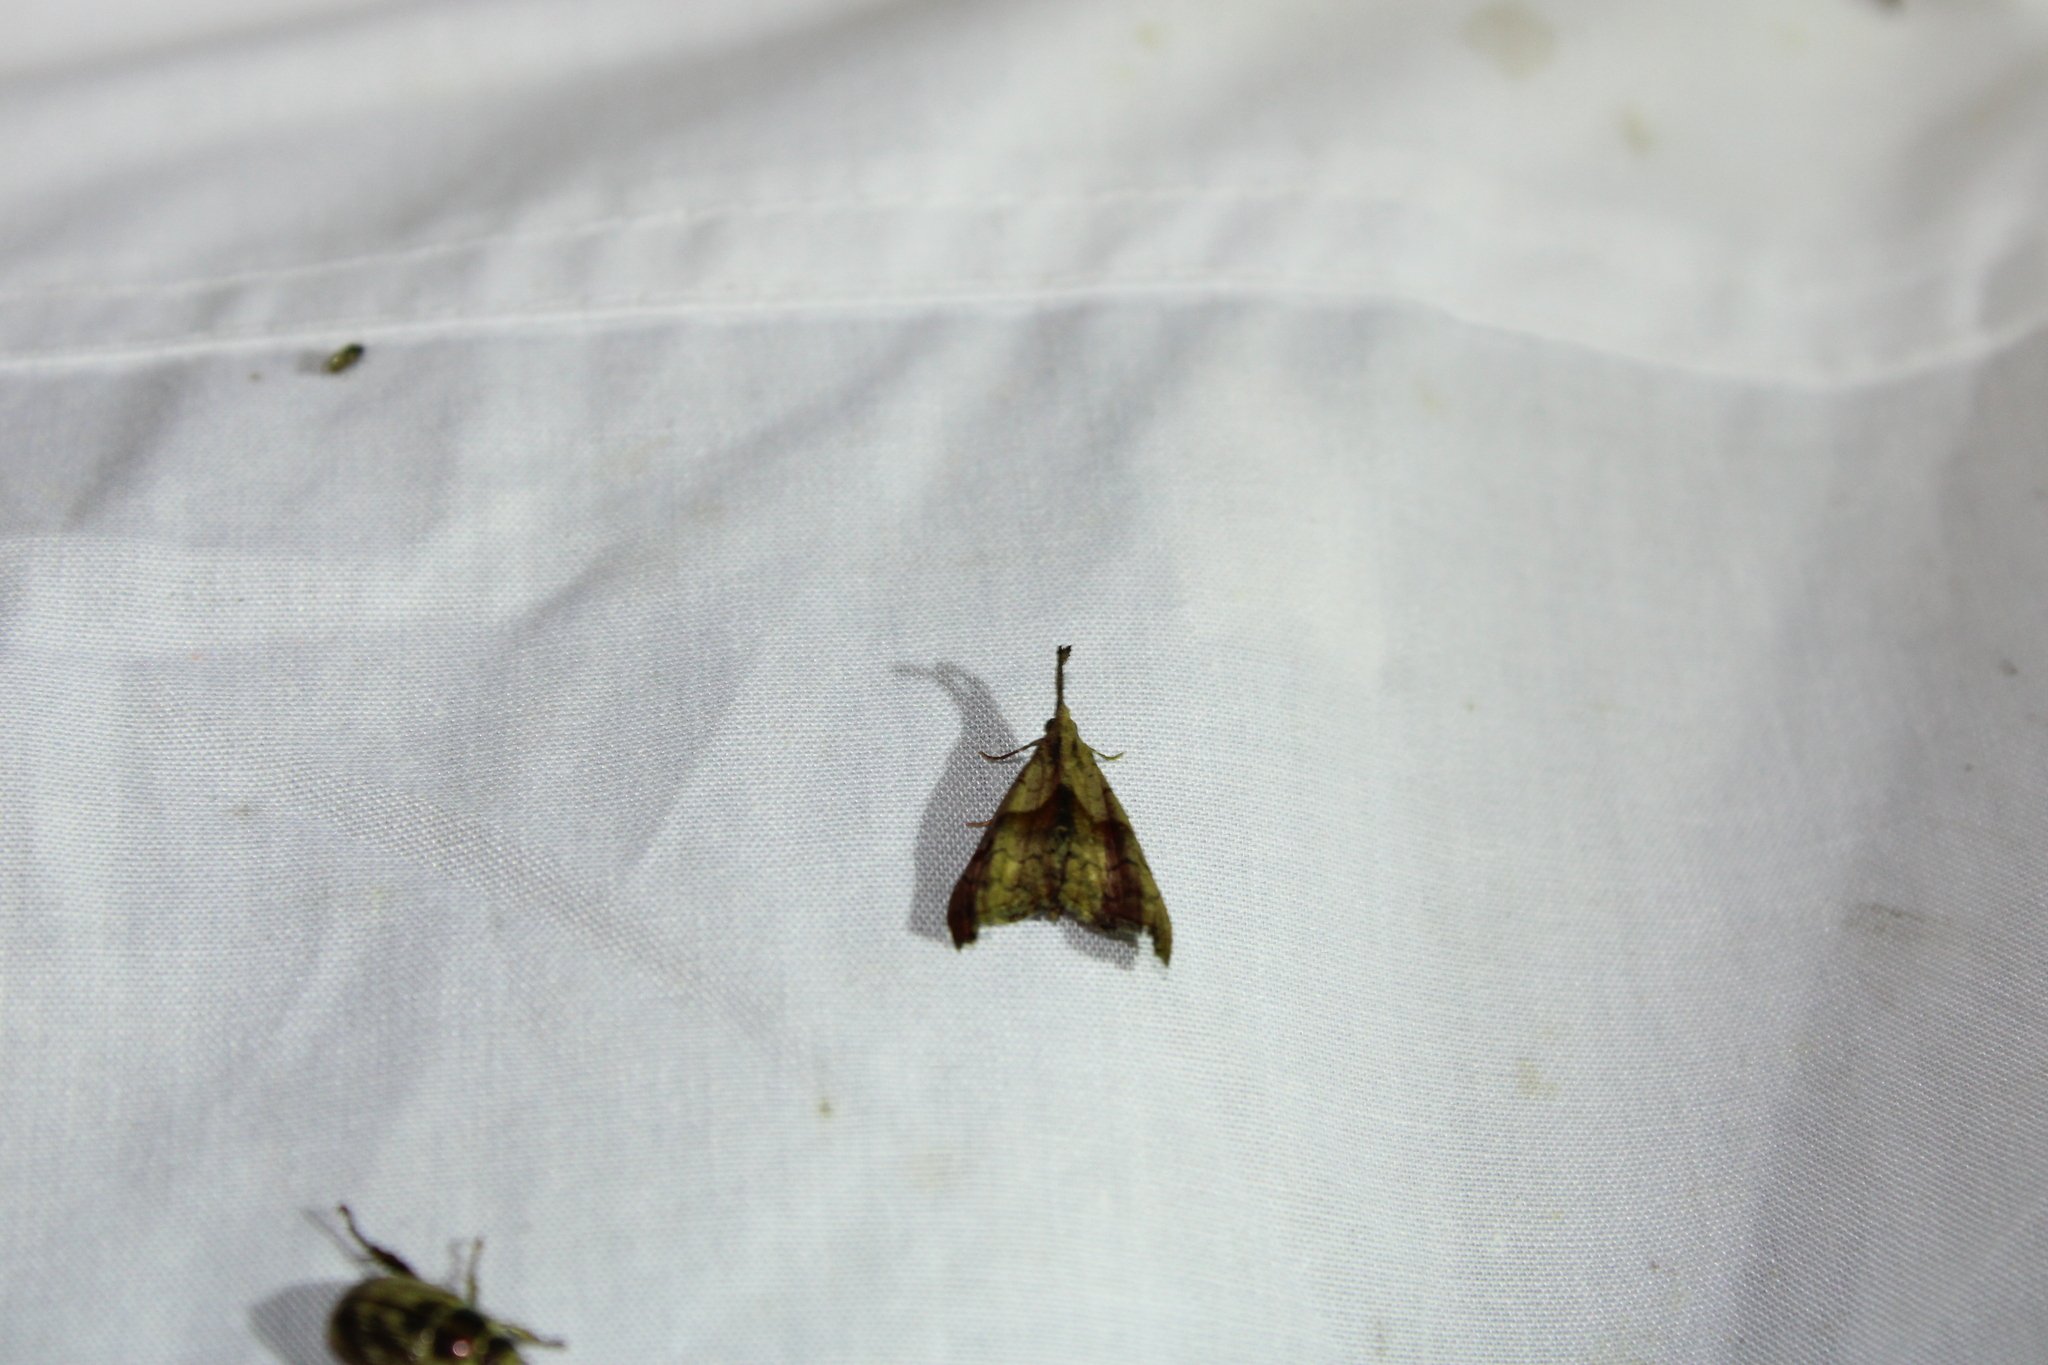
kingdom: Animalia
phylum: Arthropoda
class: Insecta
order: Lepidoptera
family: Erebidae
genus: Palthis
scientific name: Palthis angulalis
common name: Dark-spotted palthis moth
